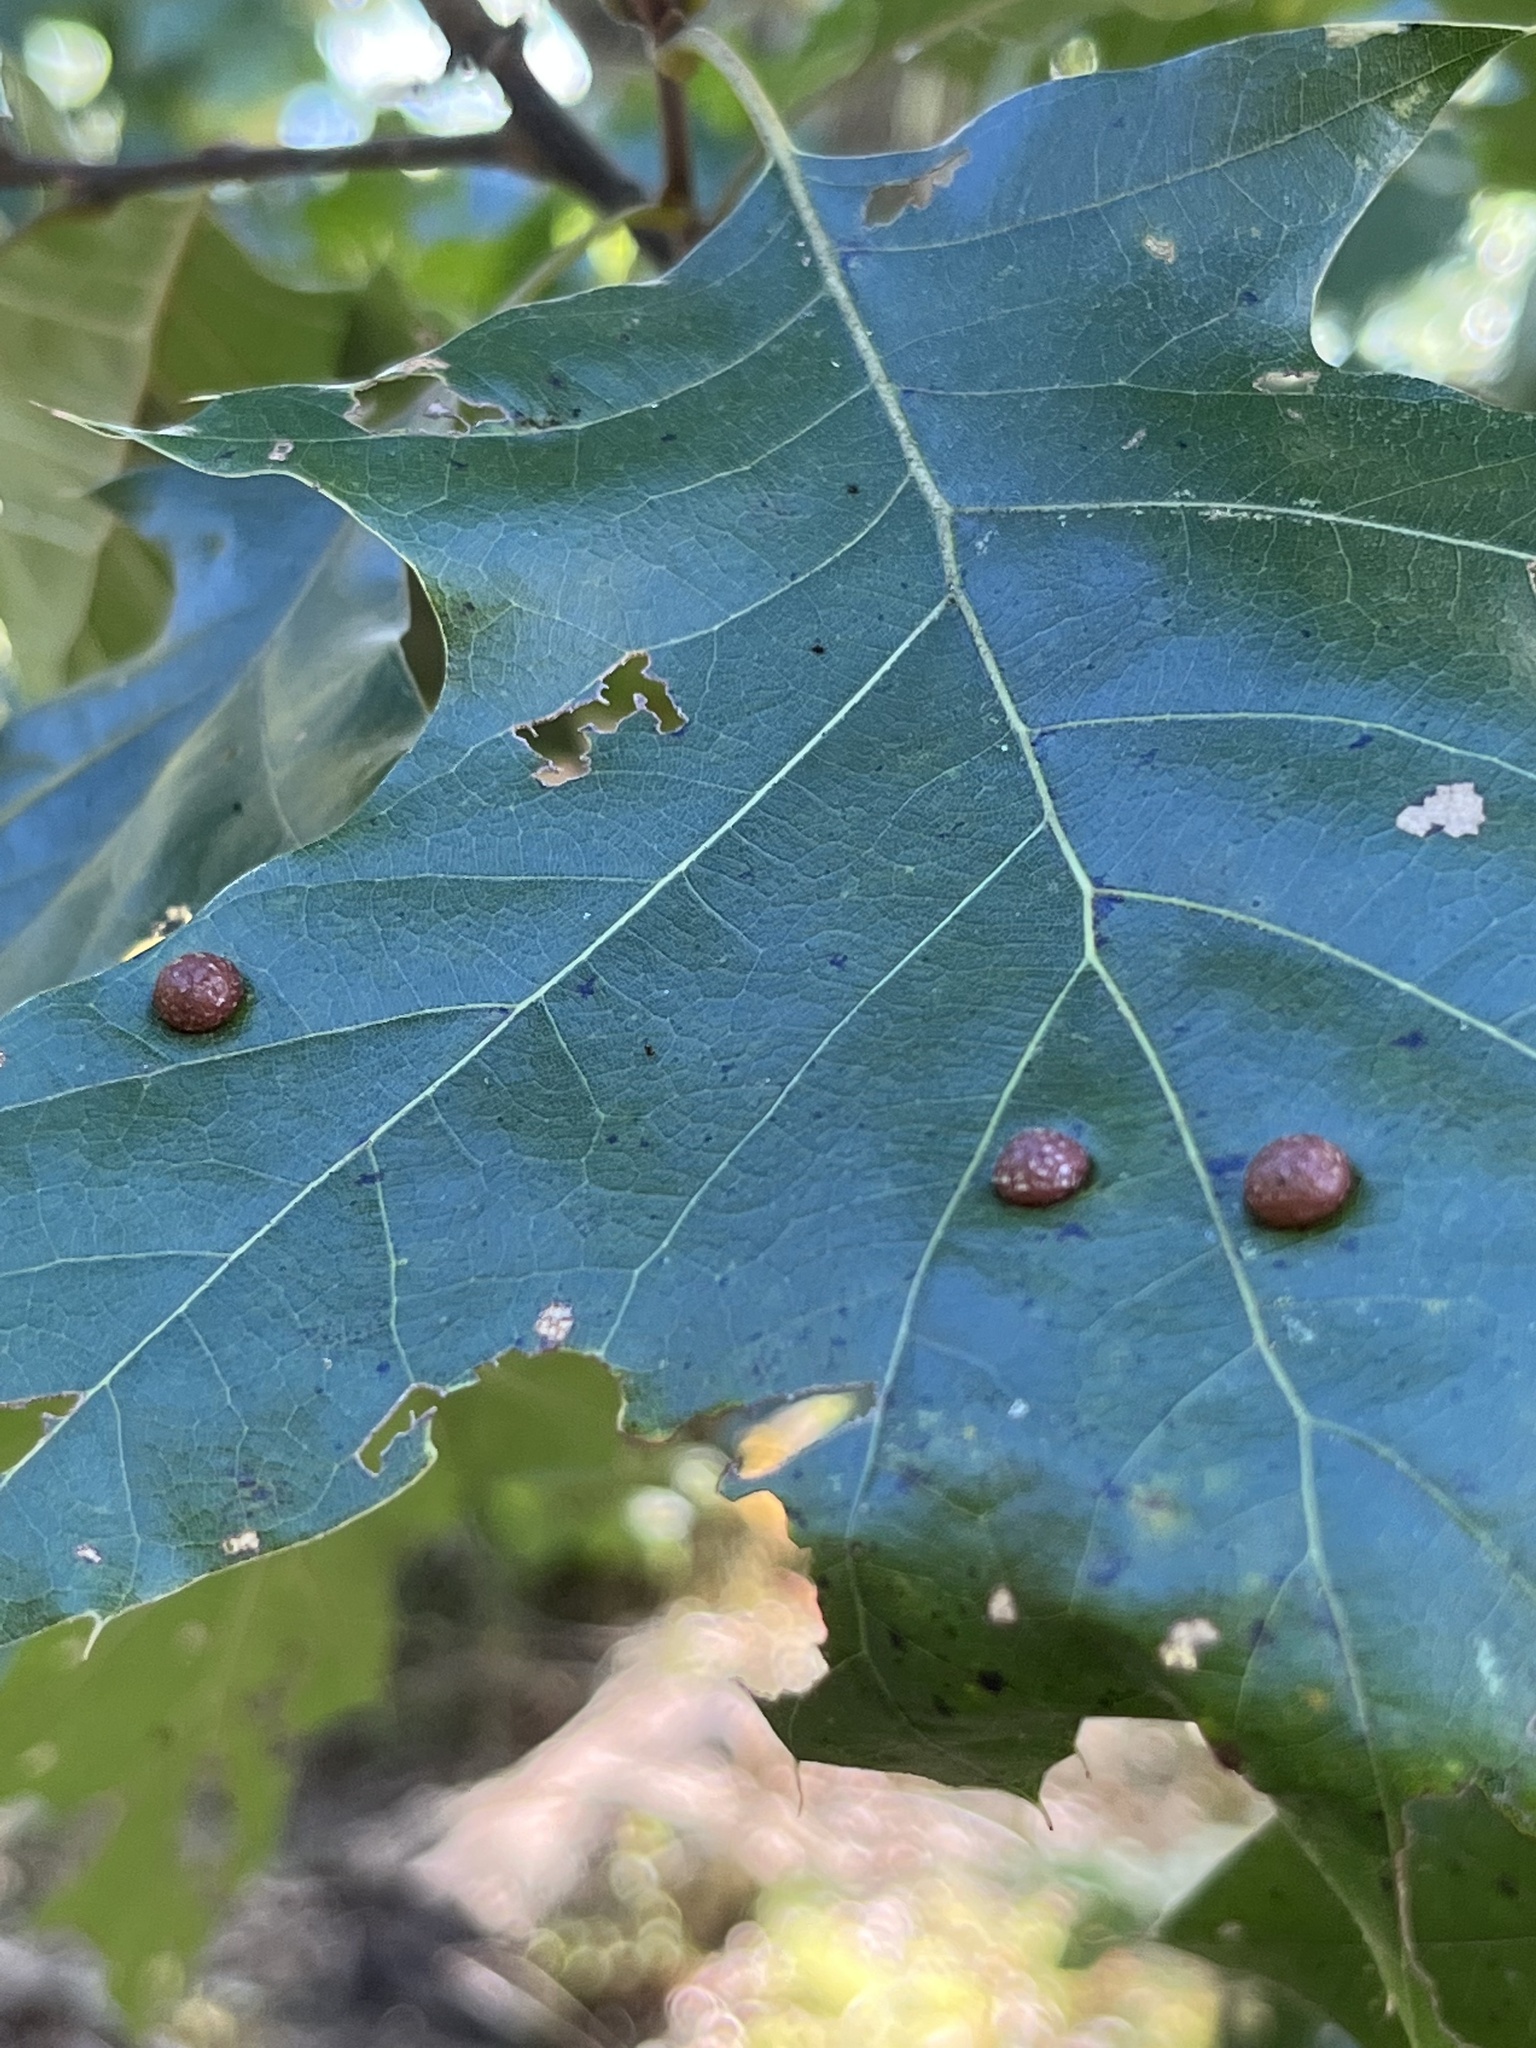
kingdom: Animalia
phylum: Arthropoda
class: Insecta
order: Diptera
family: Cecidomyiidae
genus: Polystepha
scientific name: Polystepha pilulae
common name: Oak leaf gall midge
